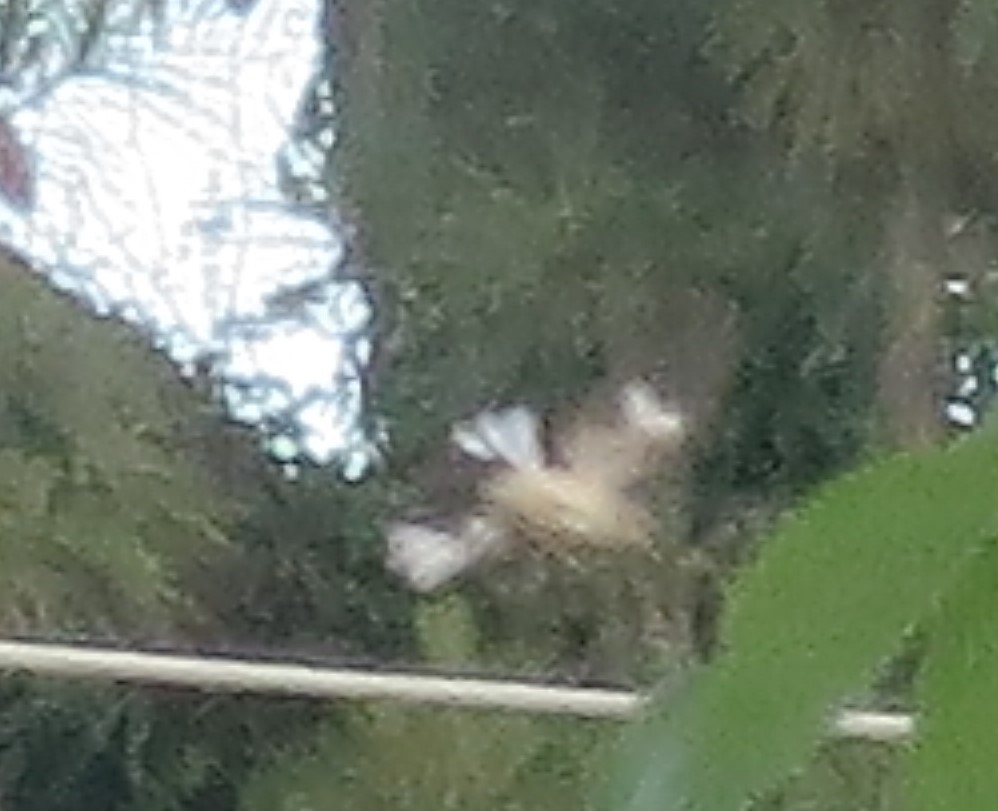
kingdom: Animalia
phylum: Chordata
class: Aves
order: Passeriformes
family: Mimidae
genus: Mimus
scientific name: Mimus polyglottos
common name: Northern mockingbird
